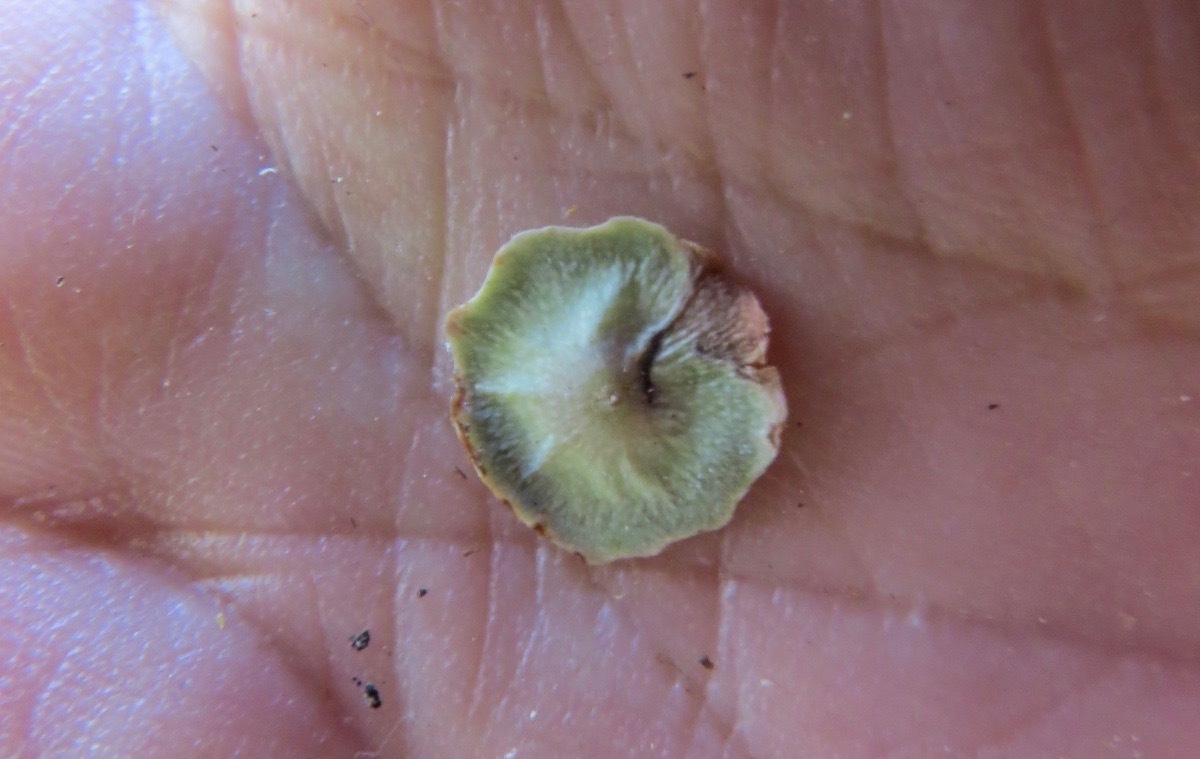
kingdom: Animalia
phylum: Arthropoda
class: Insecta
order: Hymenoptera
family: Cynipidae
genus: Andricus
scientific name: Andricus
